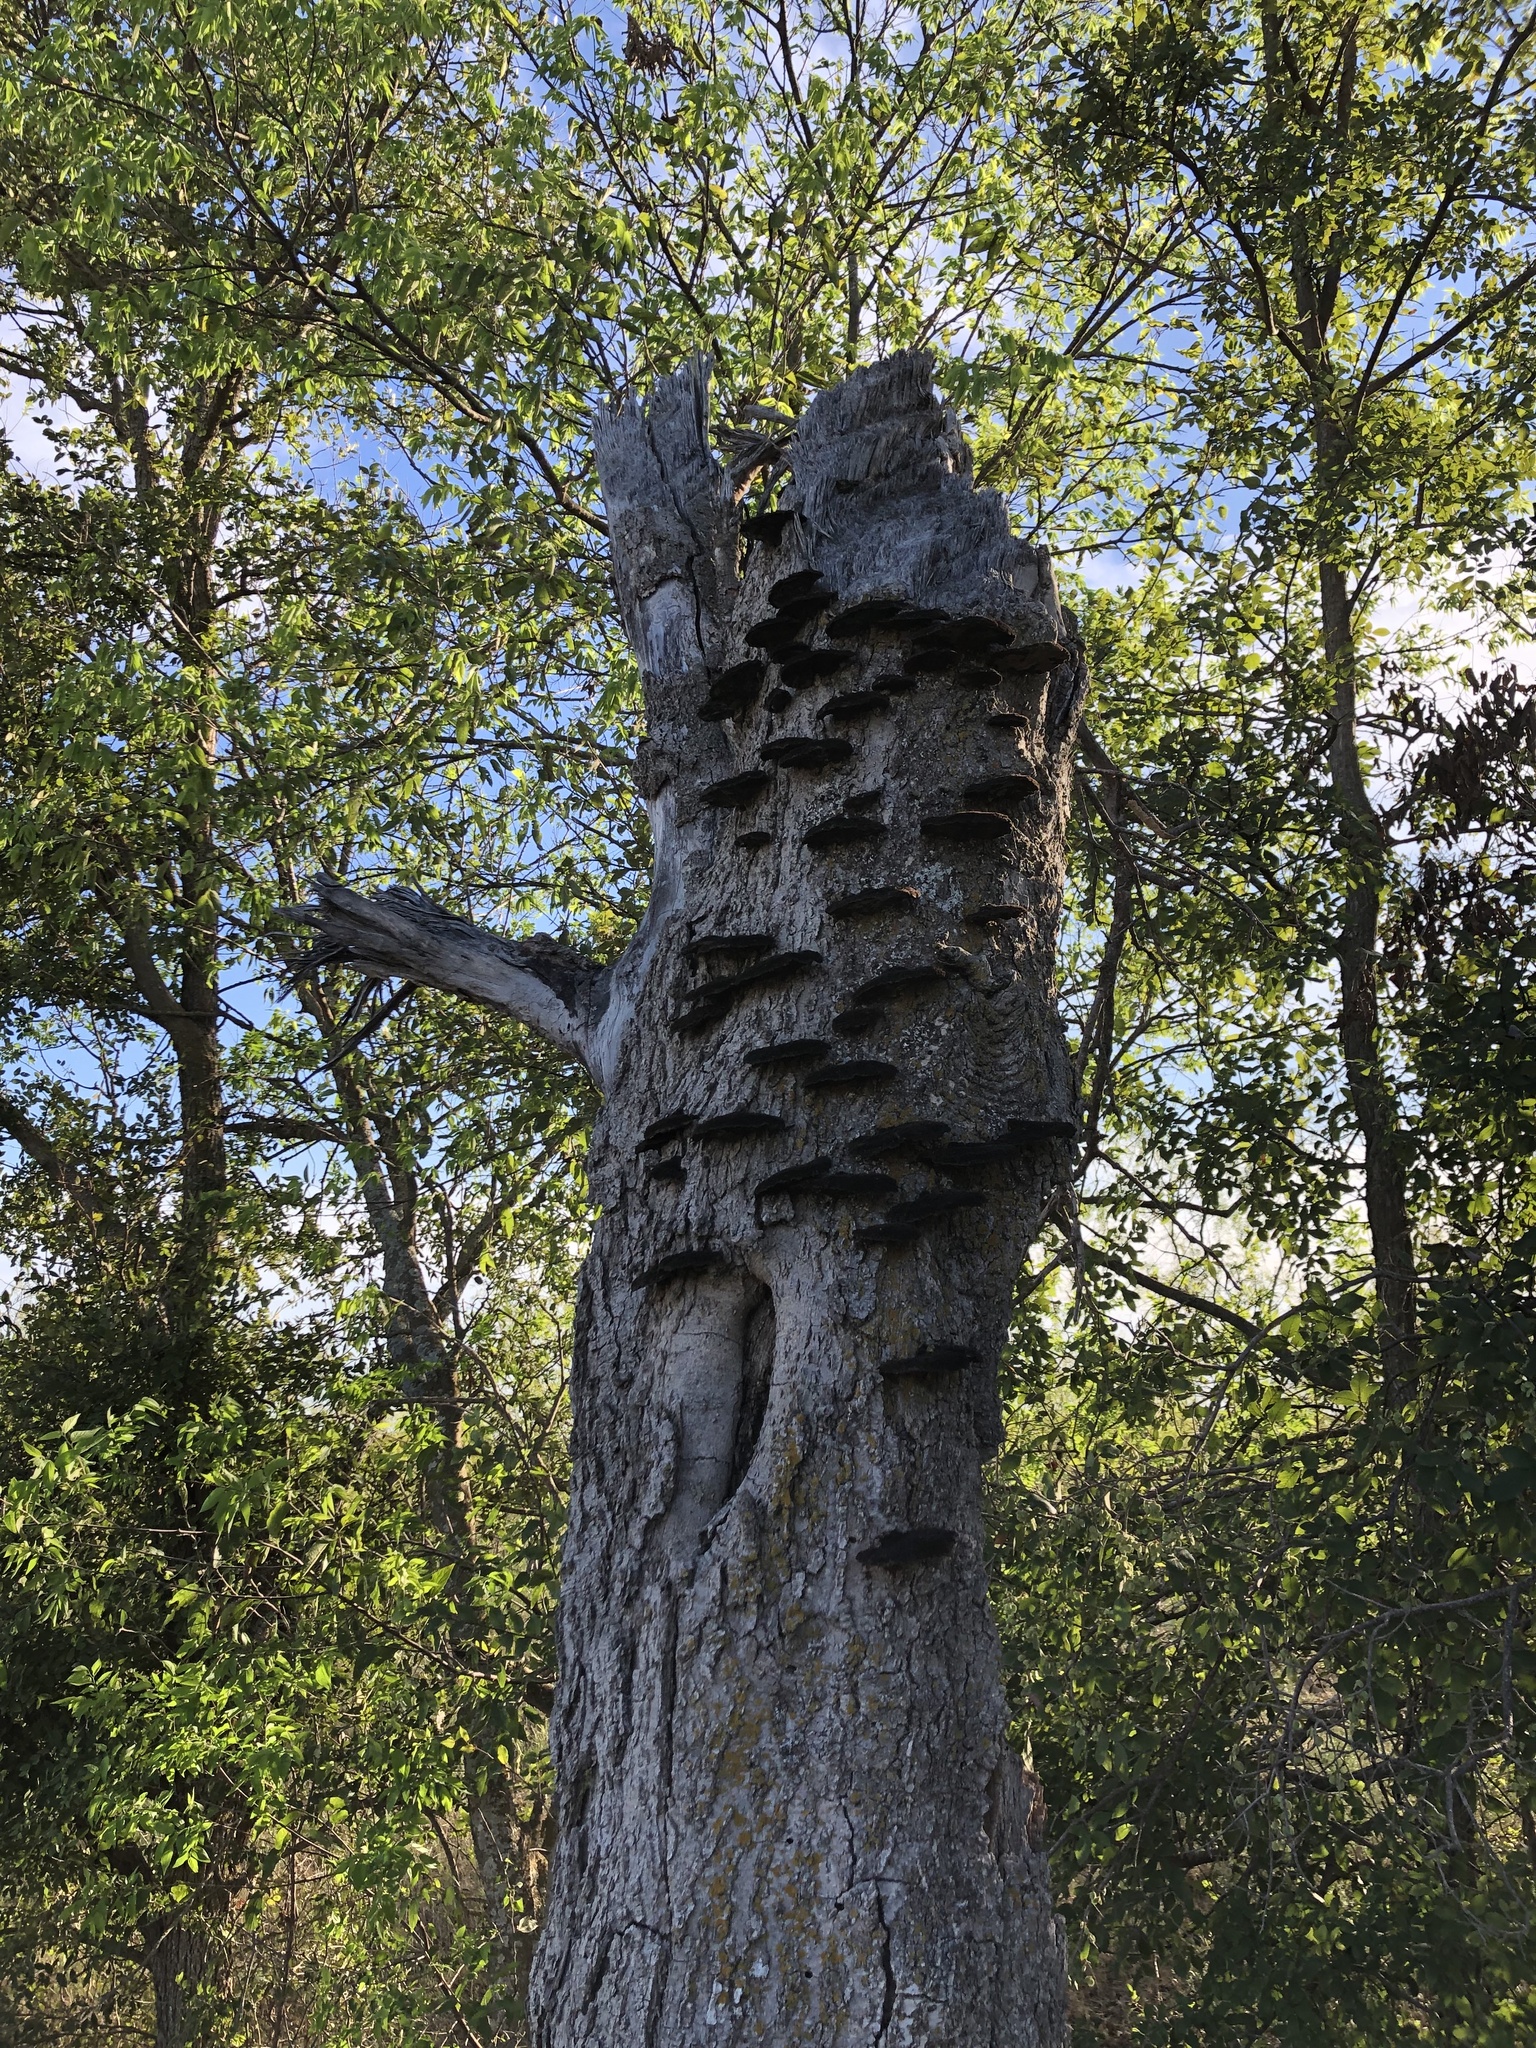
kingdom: Fungi
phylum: Basidiomycota
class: Agaricomycetes
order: Polyporales
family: Cerrenaceae
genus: Cerrena
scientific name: Cerrena hydnoides
